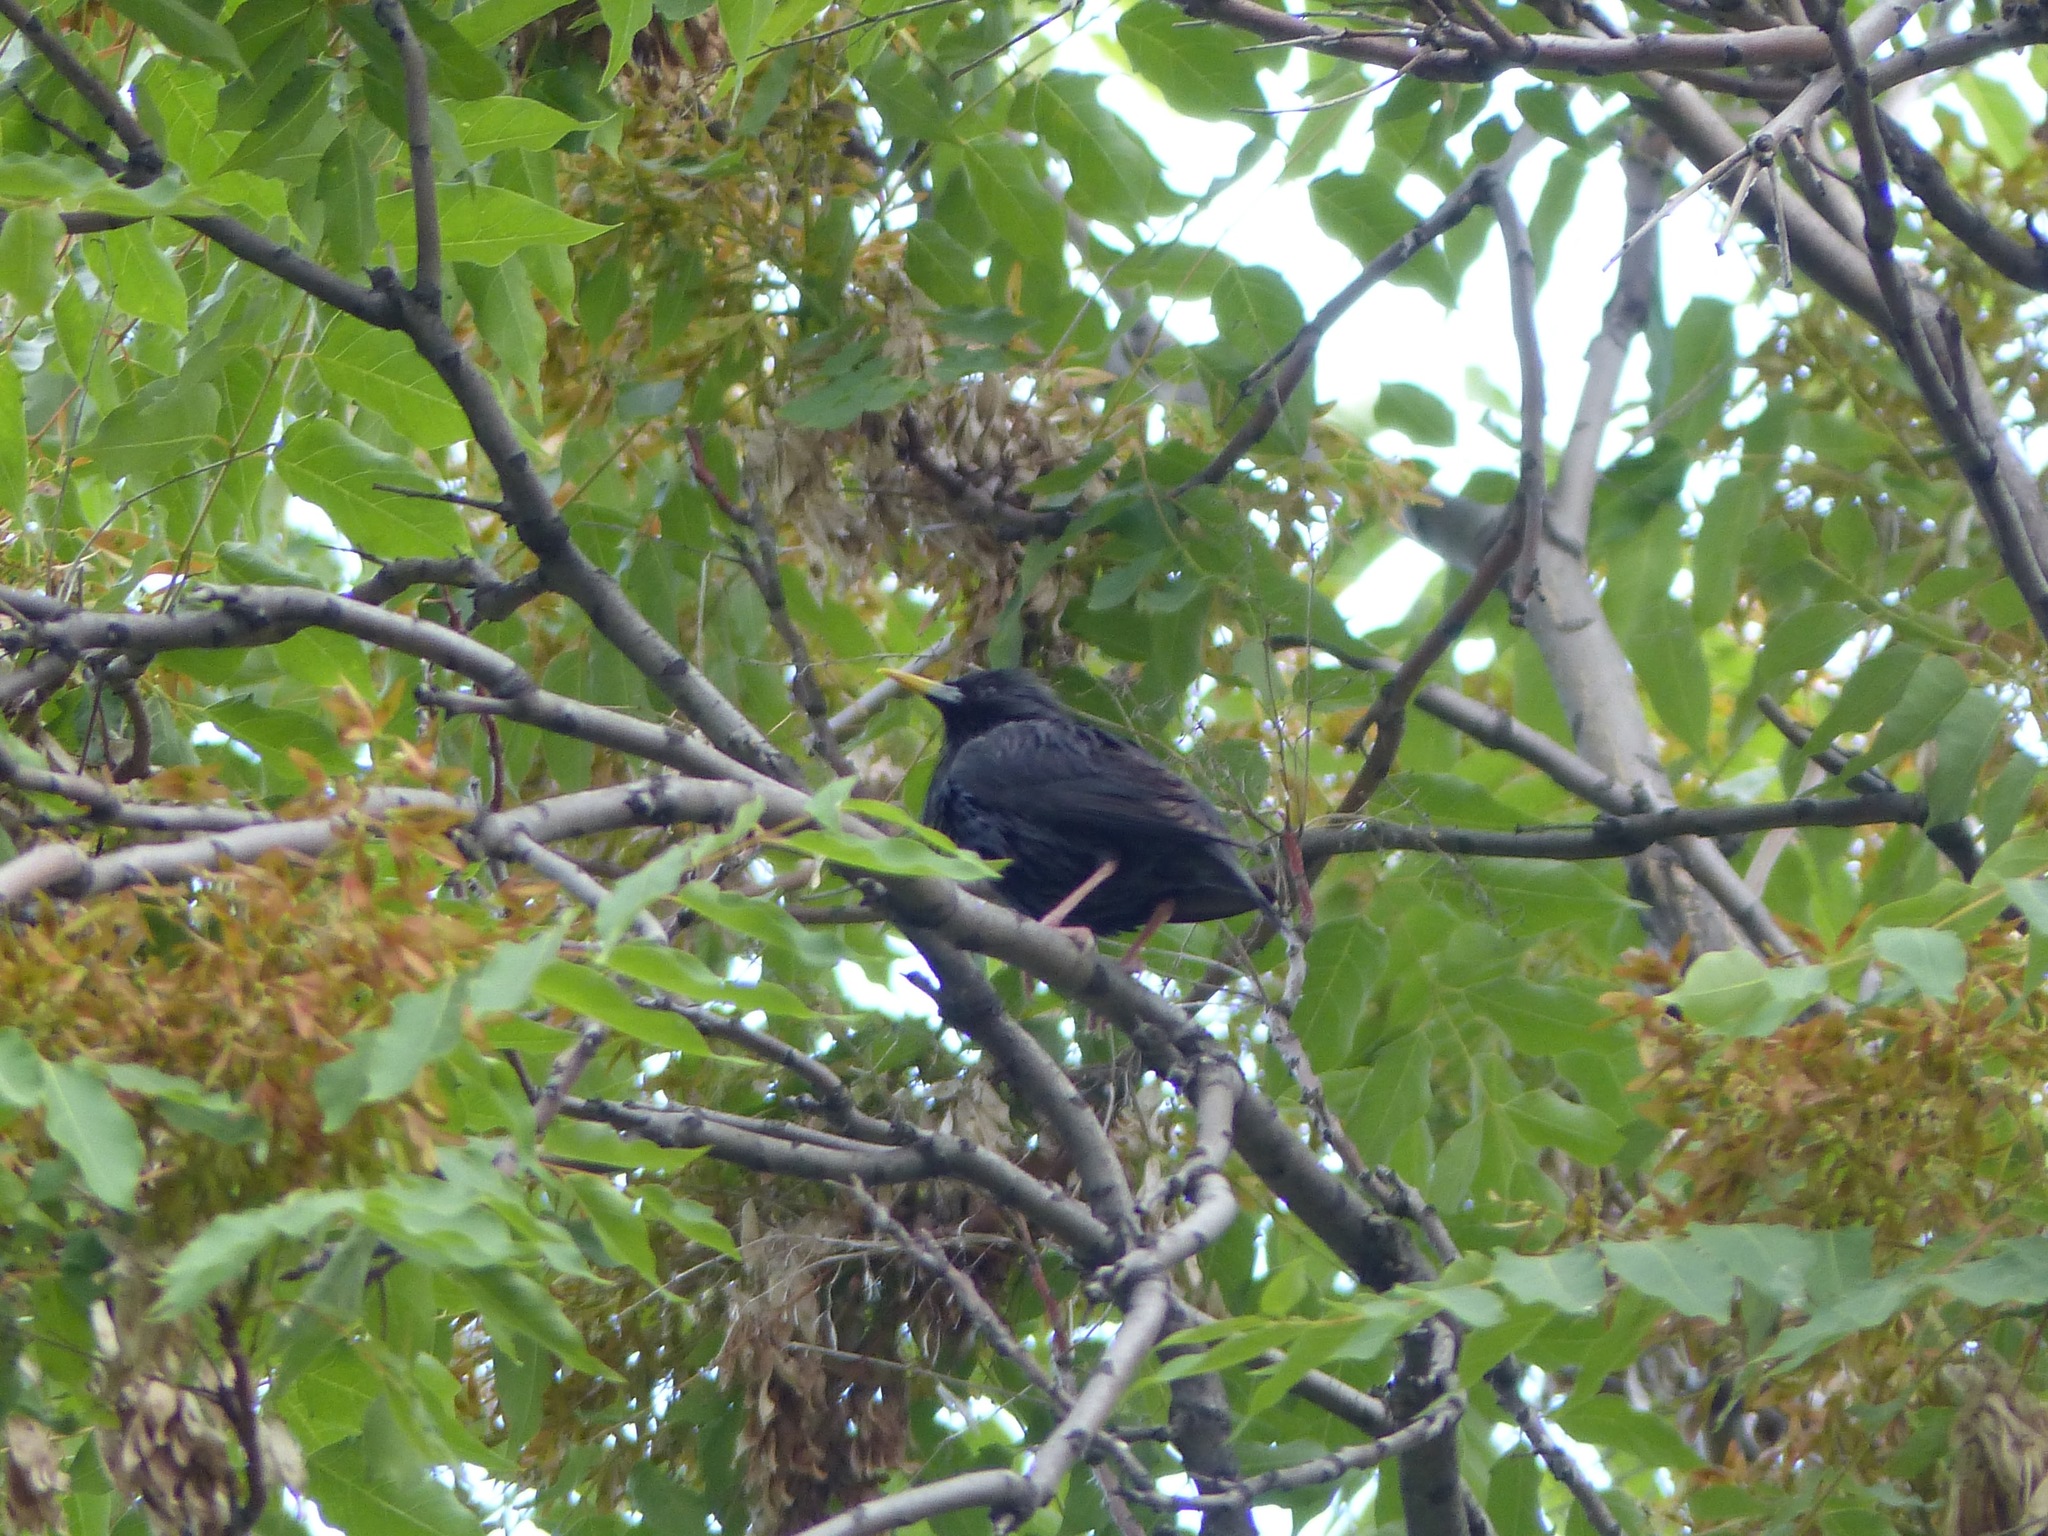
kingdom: Animalia
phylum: Chordata
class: Aves
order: Passeriformes
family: Sturnidae
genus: Sturnus
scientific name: Sturnus unicolor
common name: Spotless starling
